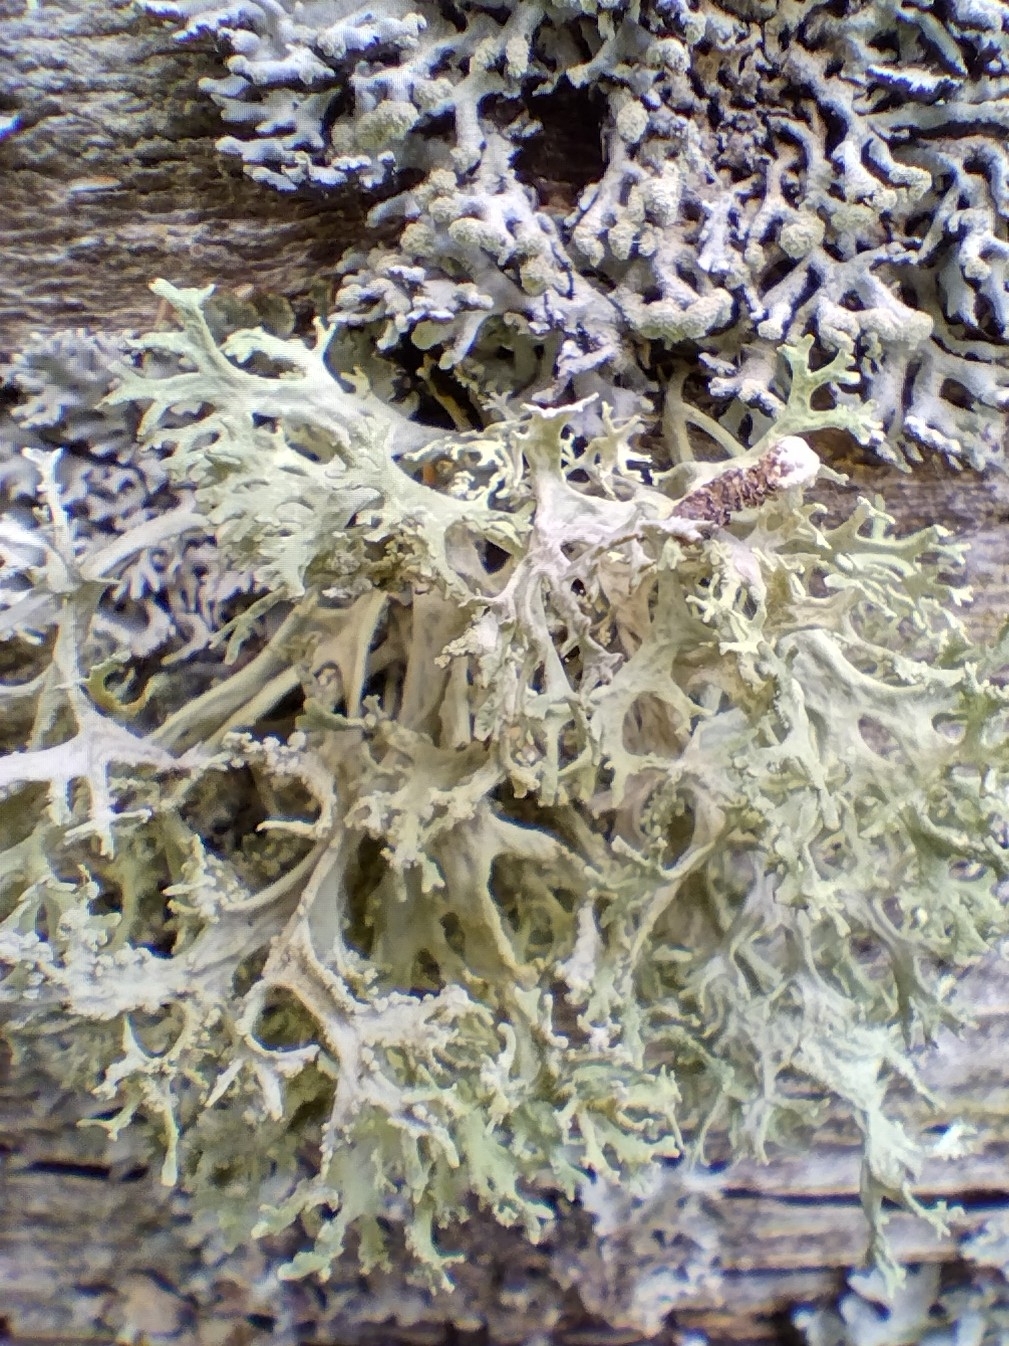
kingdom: Fungi
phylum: Ascomycota
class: Lecanoromycetes
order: Lecanorales
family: Parmeliaceae
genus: Evernia
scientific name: Evernia prunastri
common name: Oak moss
